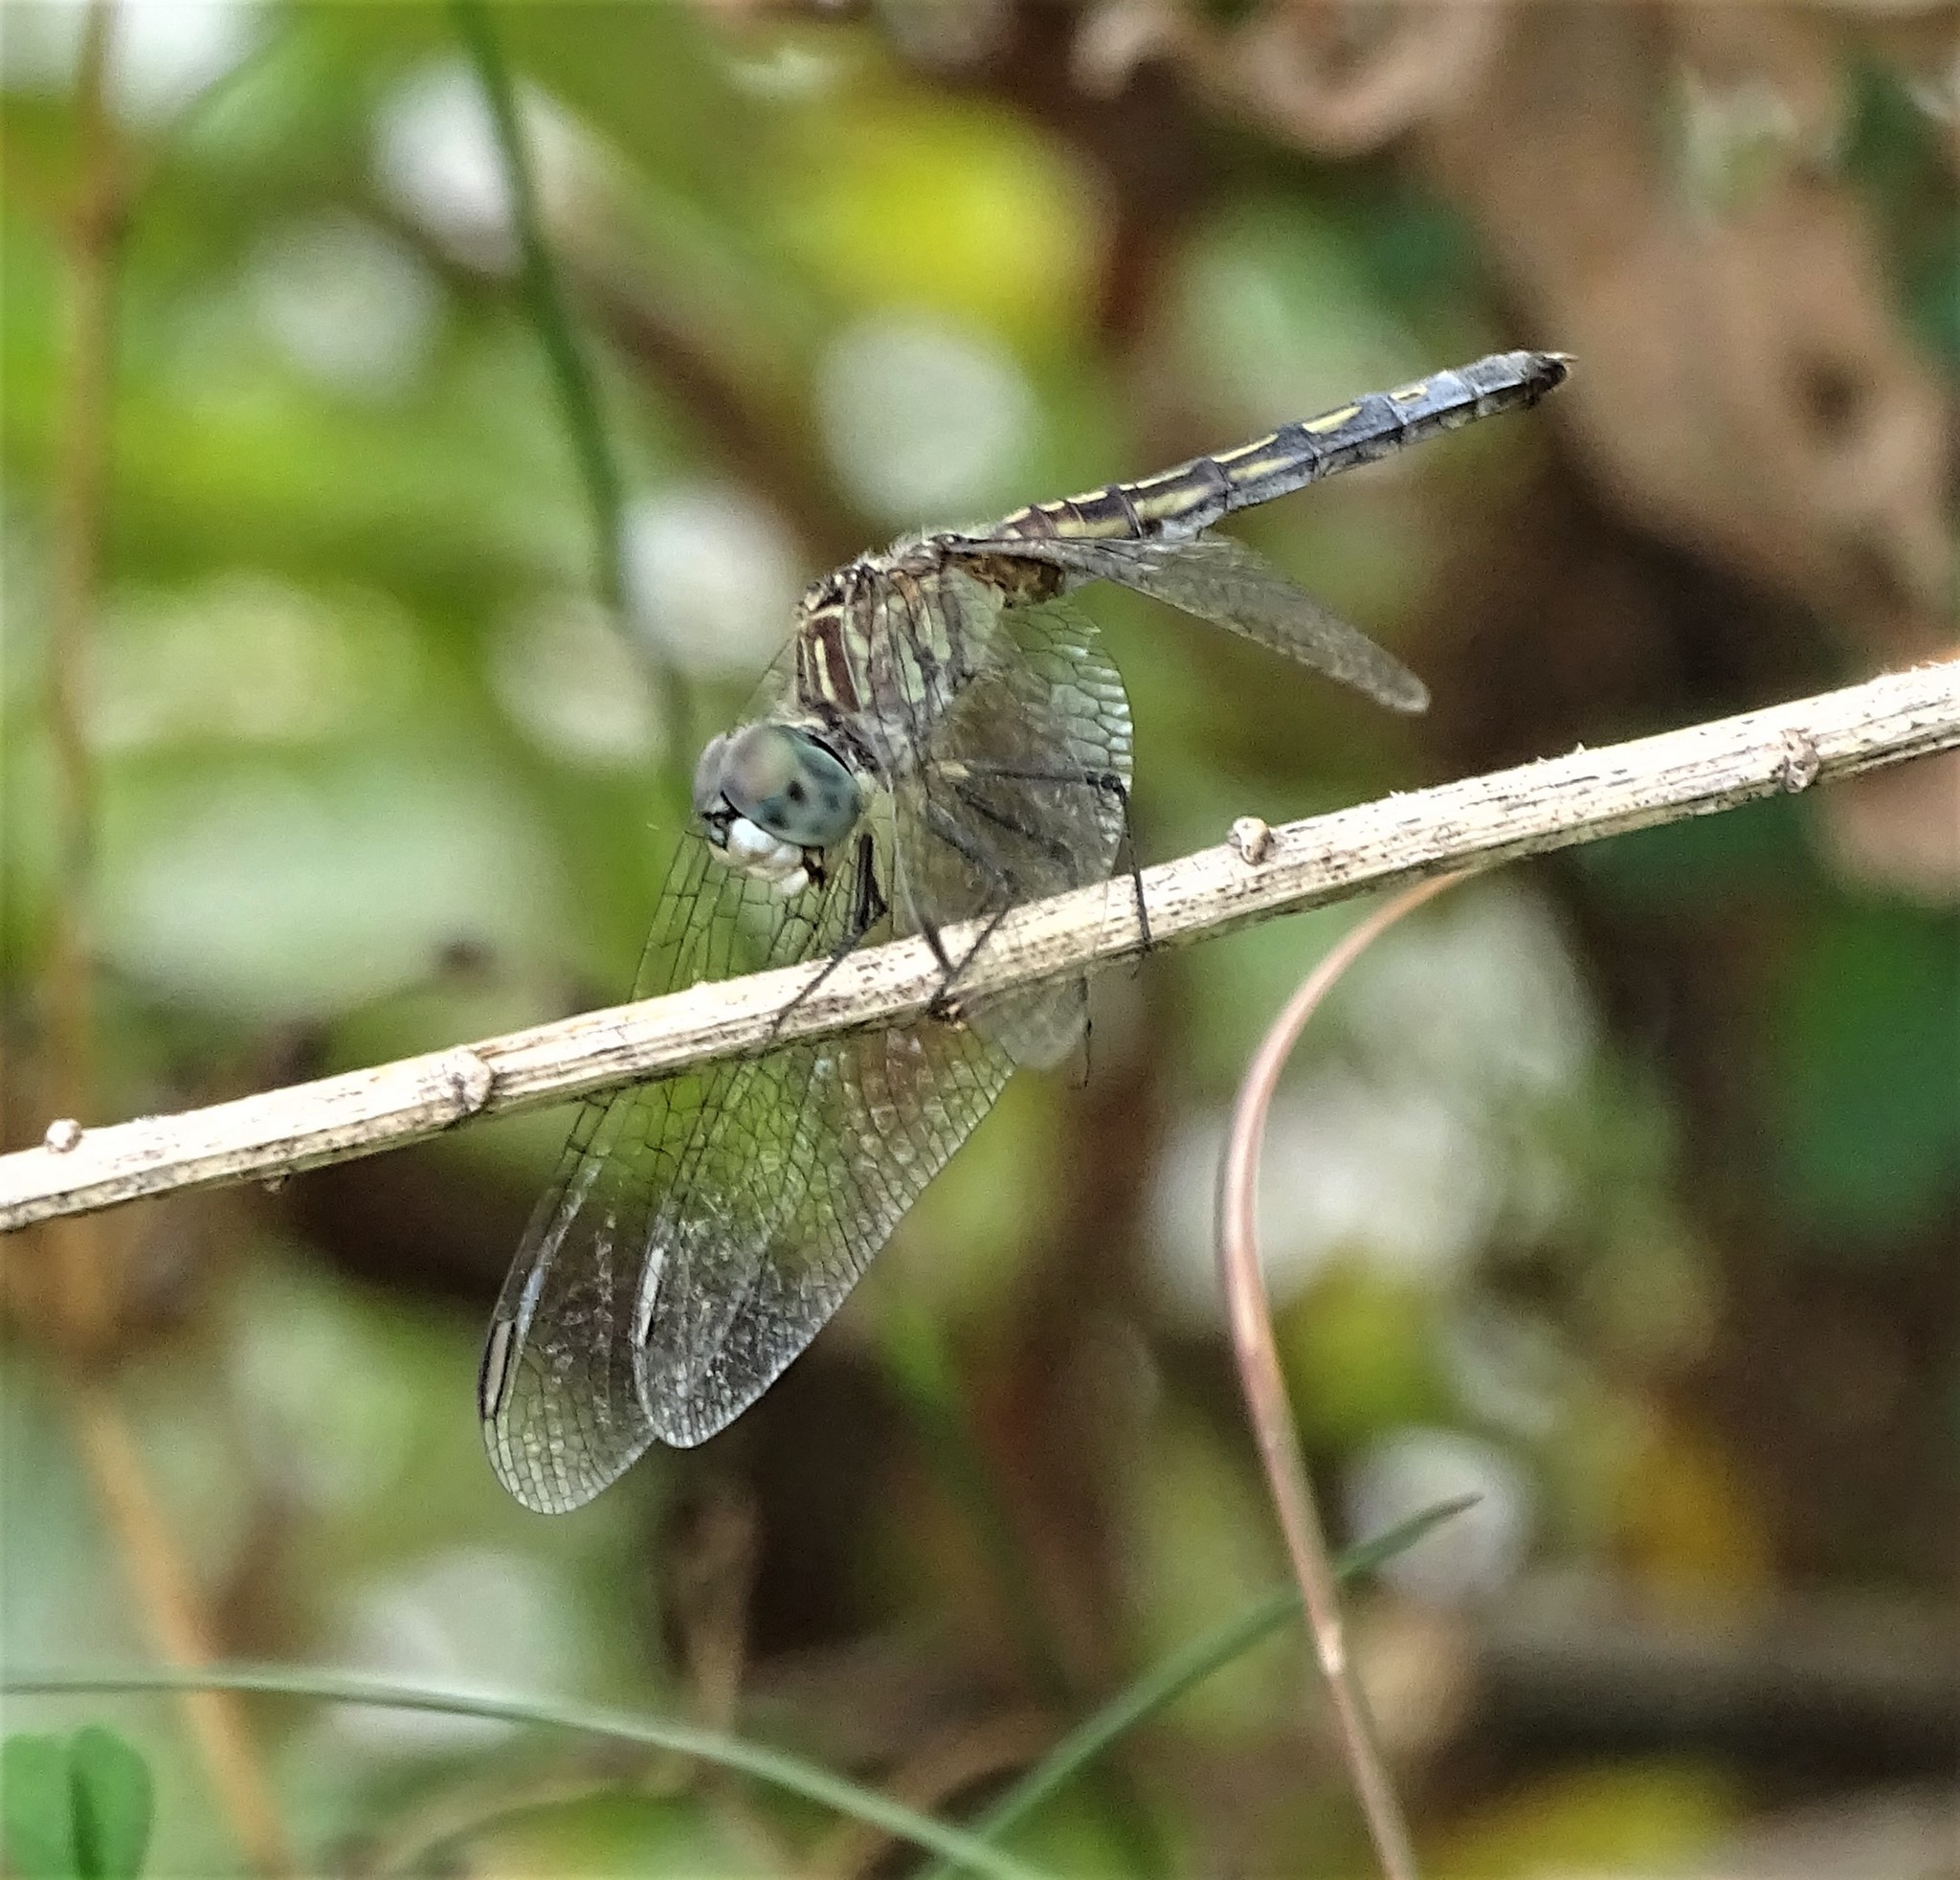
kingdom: Animalia
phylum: Arthropoda
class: Insecta
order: Odonata
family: Libellulidae
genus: Pachydiplax
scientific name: Pachydiplax longipennis
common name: Blue dasher
